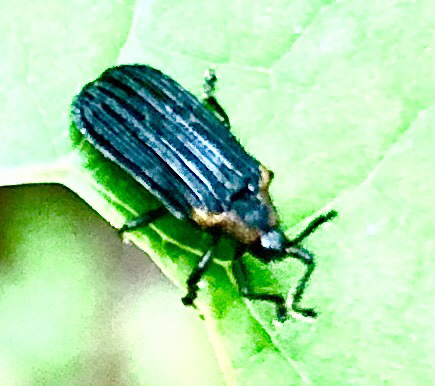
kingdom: Animalia
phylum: Arthropoda
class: Insecta
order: Coleoptera
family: Chrysomelidae
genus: Odontota
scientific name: Odontota scapularis
